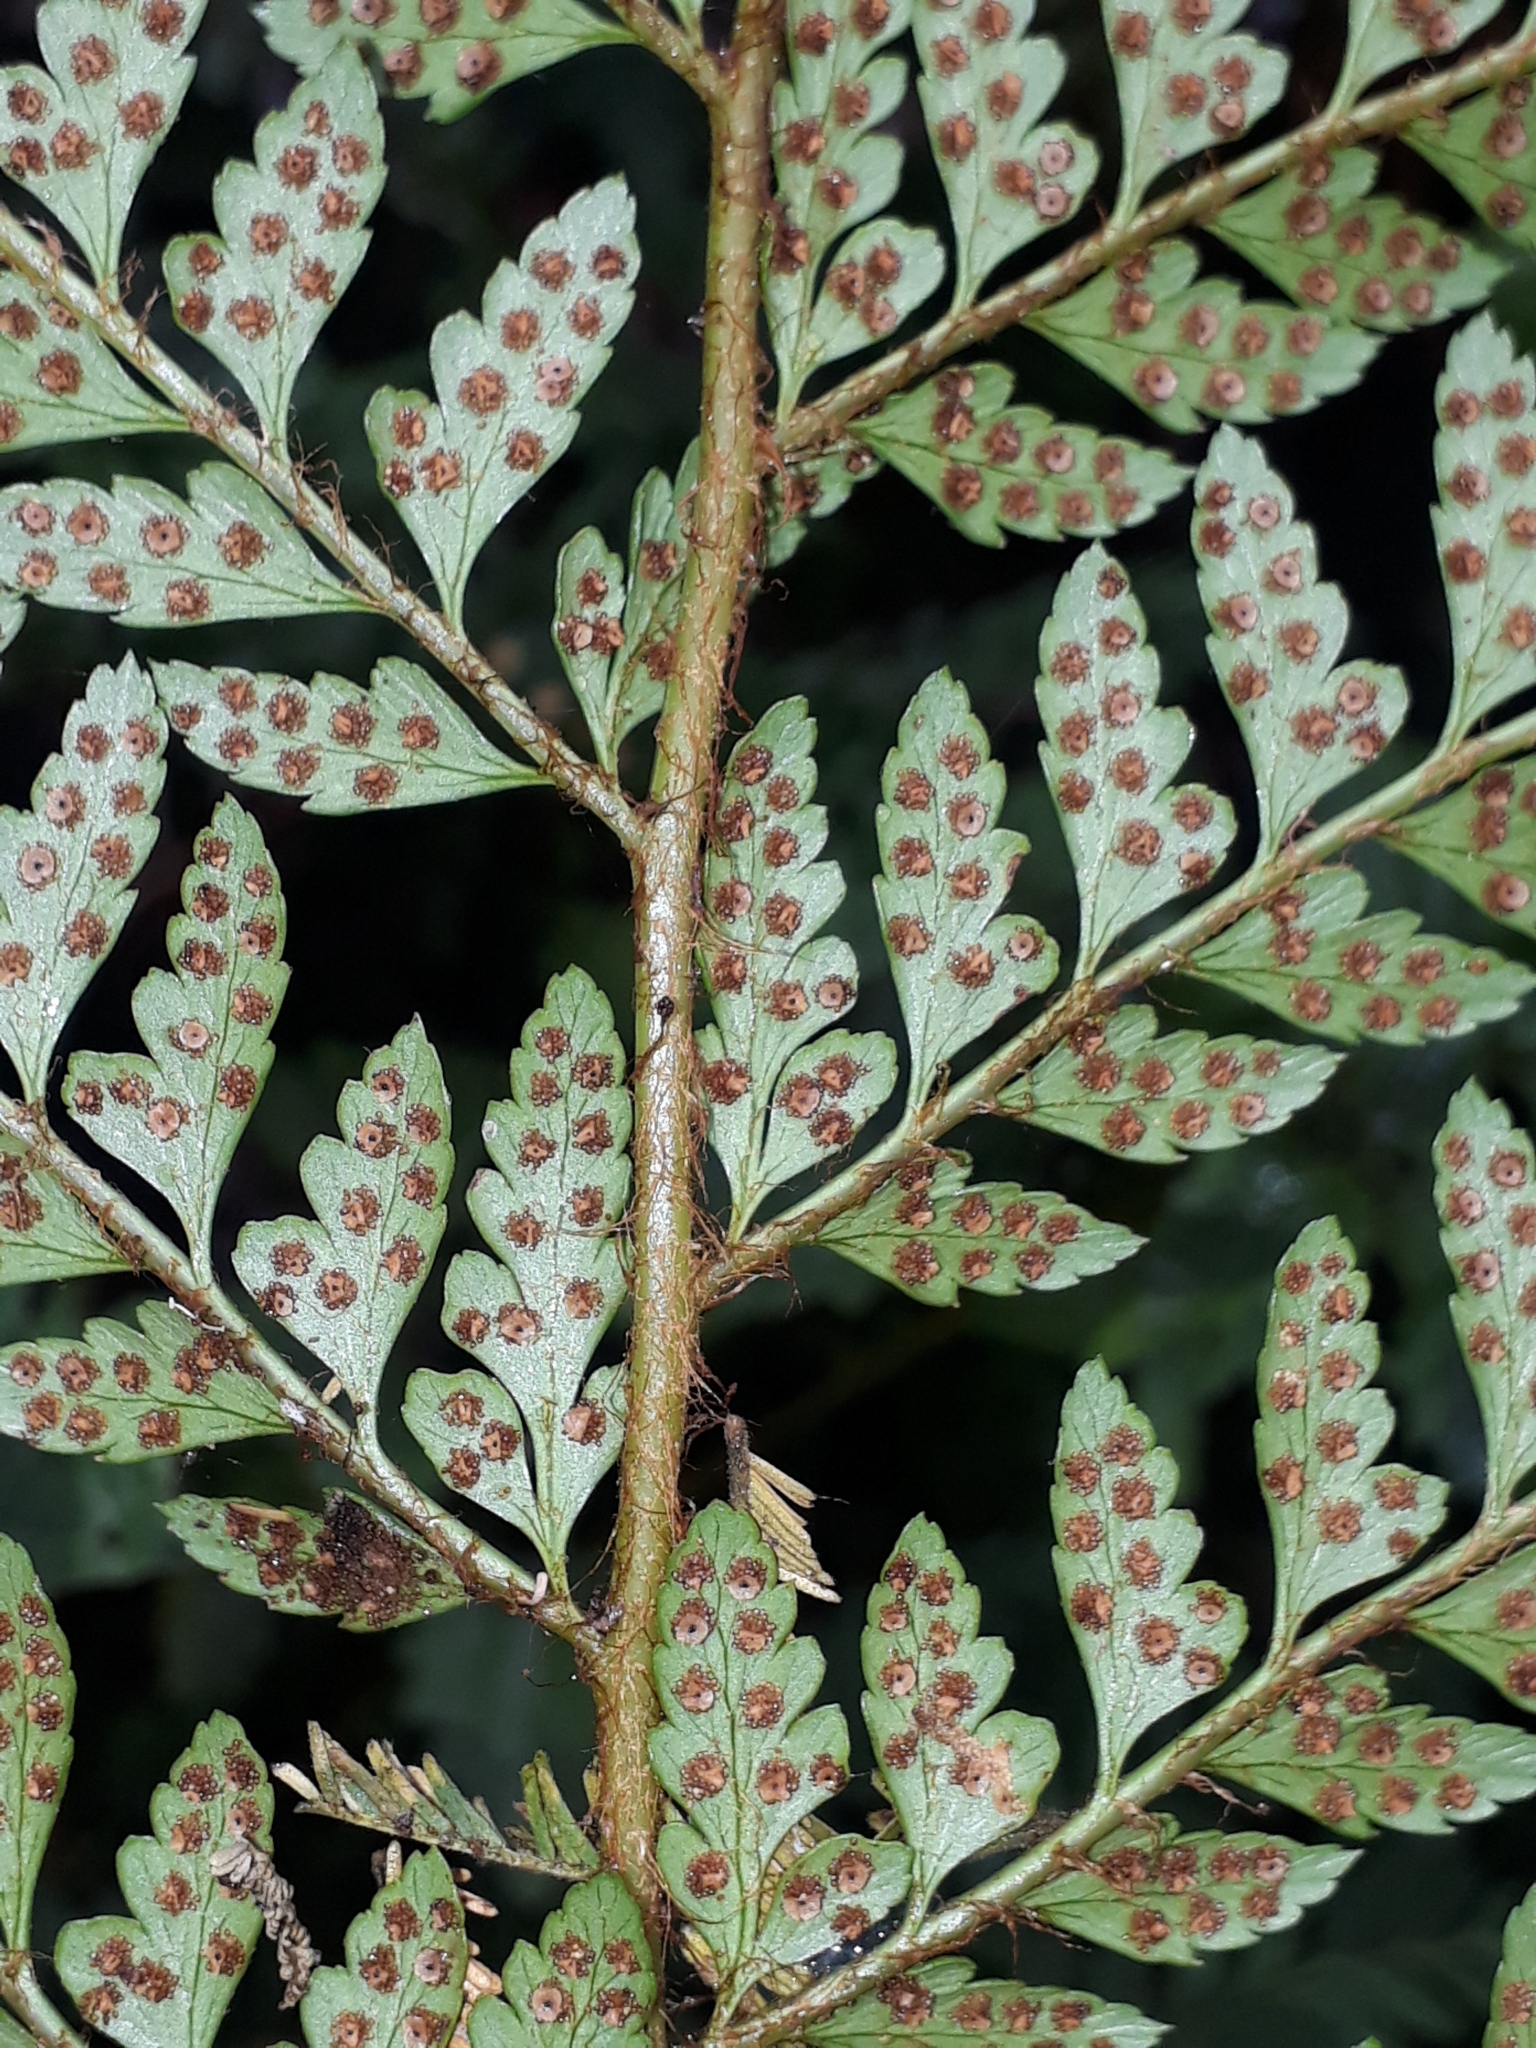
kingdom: Plantae
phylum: Tracheophyta
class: Polypodiopsida
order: Polypodiales
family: Dryopteridaceae
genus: Polystichum
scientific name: Polystichum proliferum
